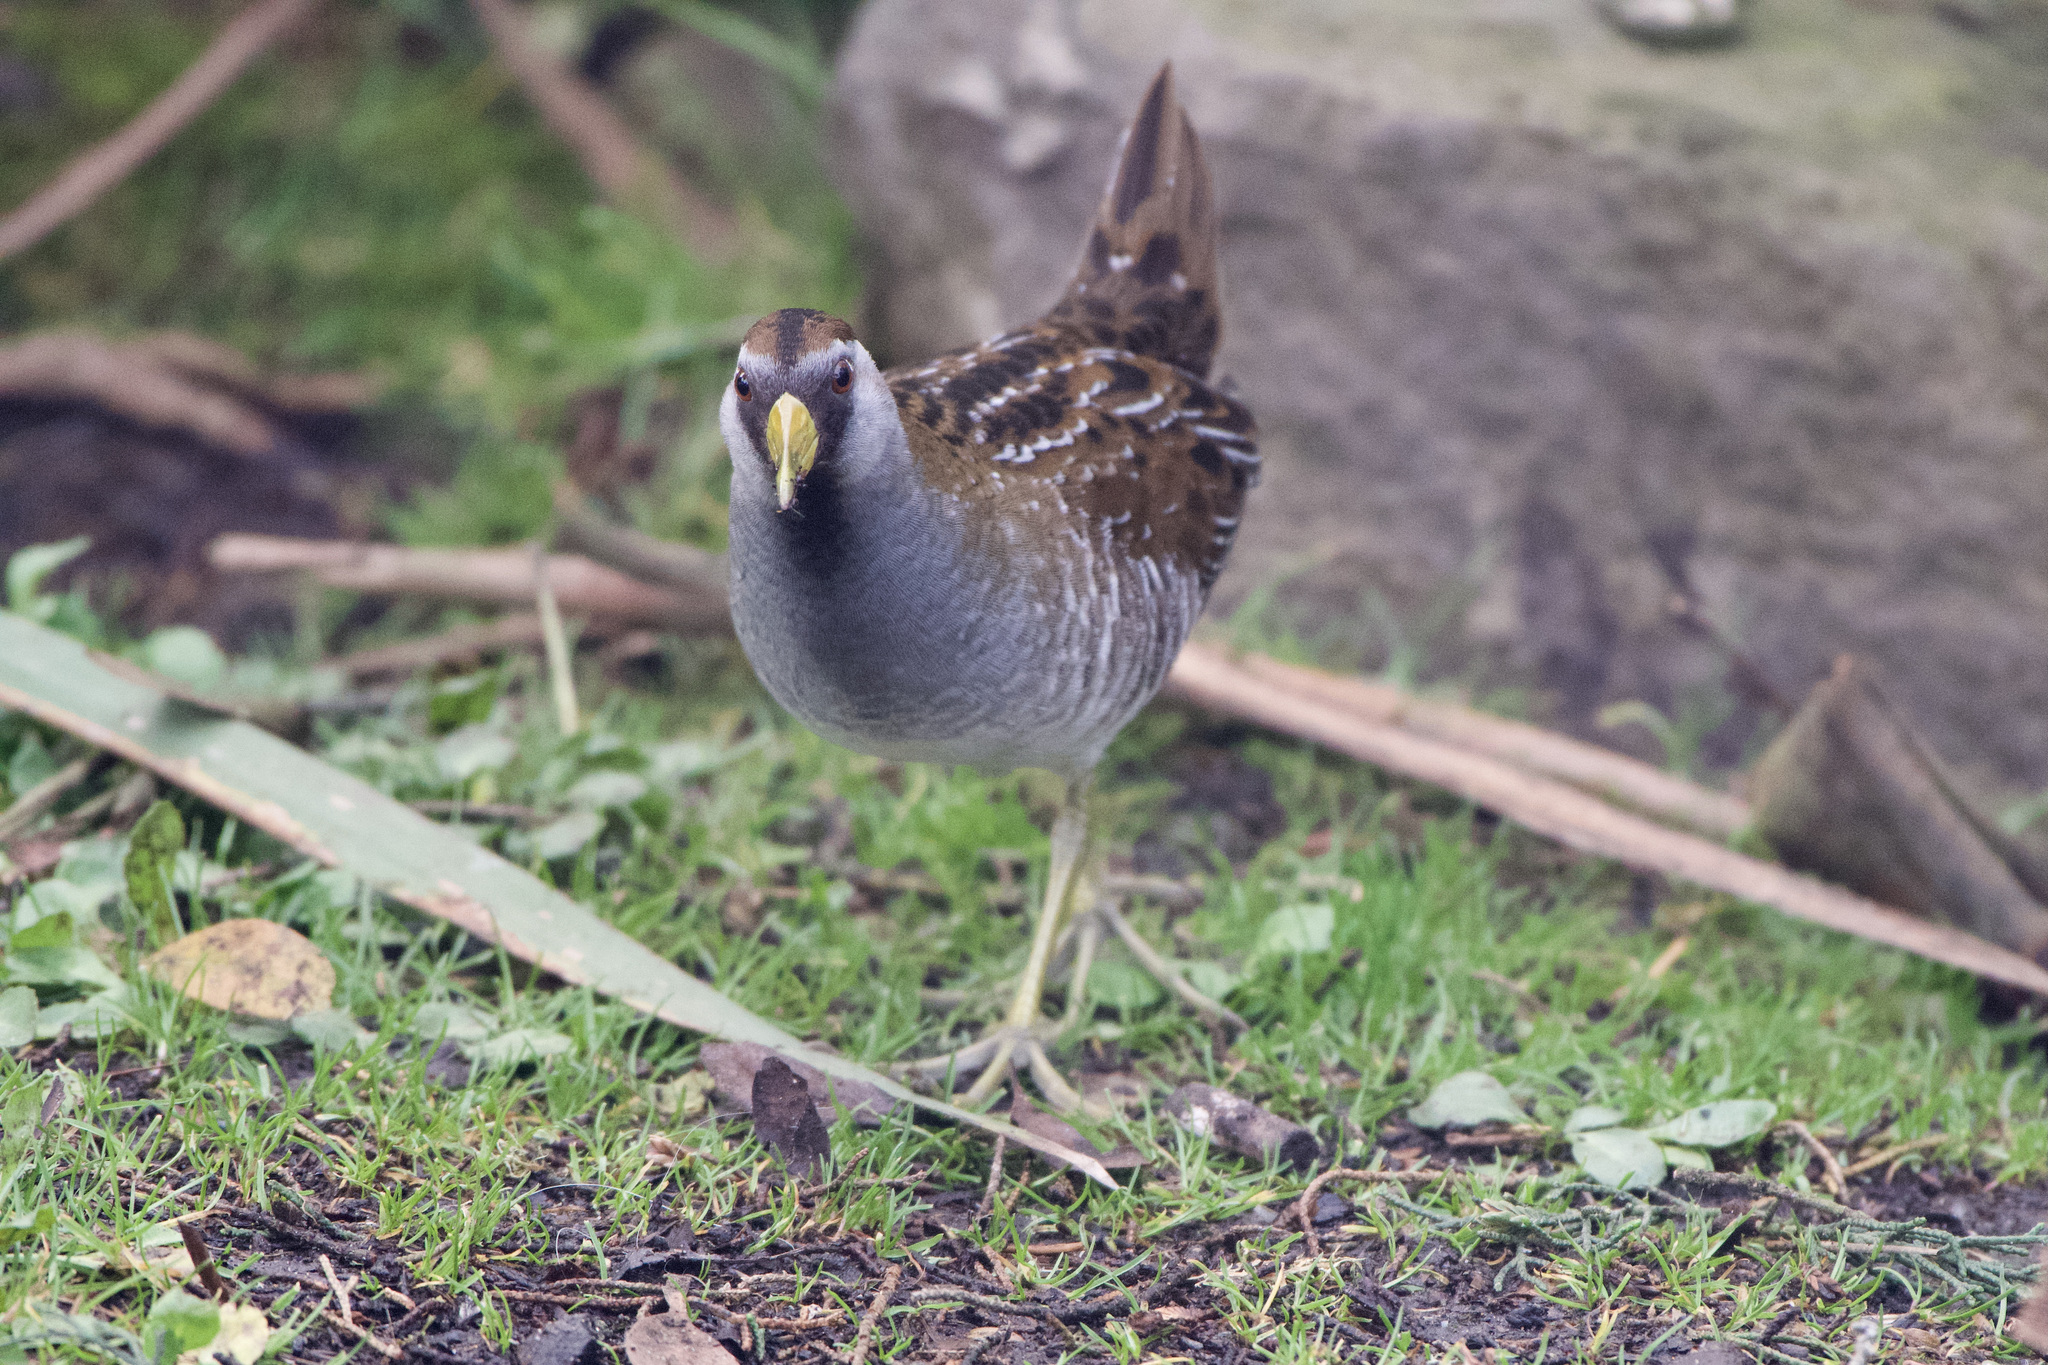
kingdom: Animalia
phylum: Chordata
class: Aves
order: Gruiformes
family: Rallidae
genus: Porzana
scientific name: Porzana carolina
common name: Sora
